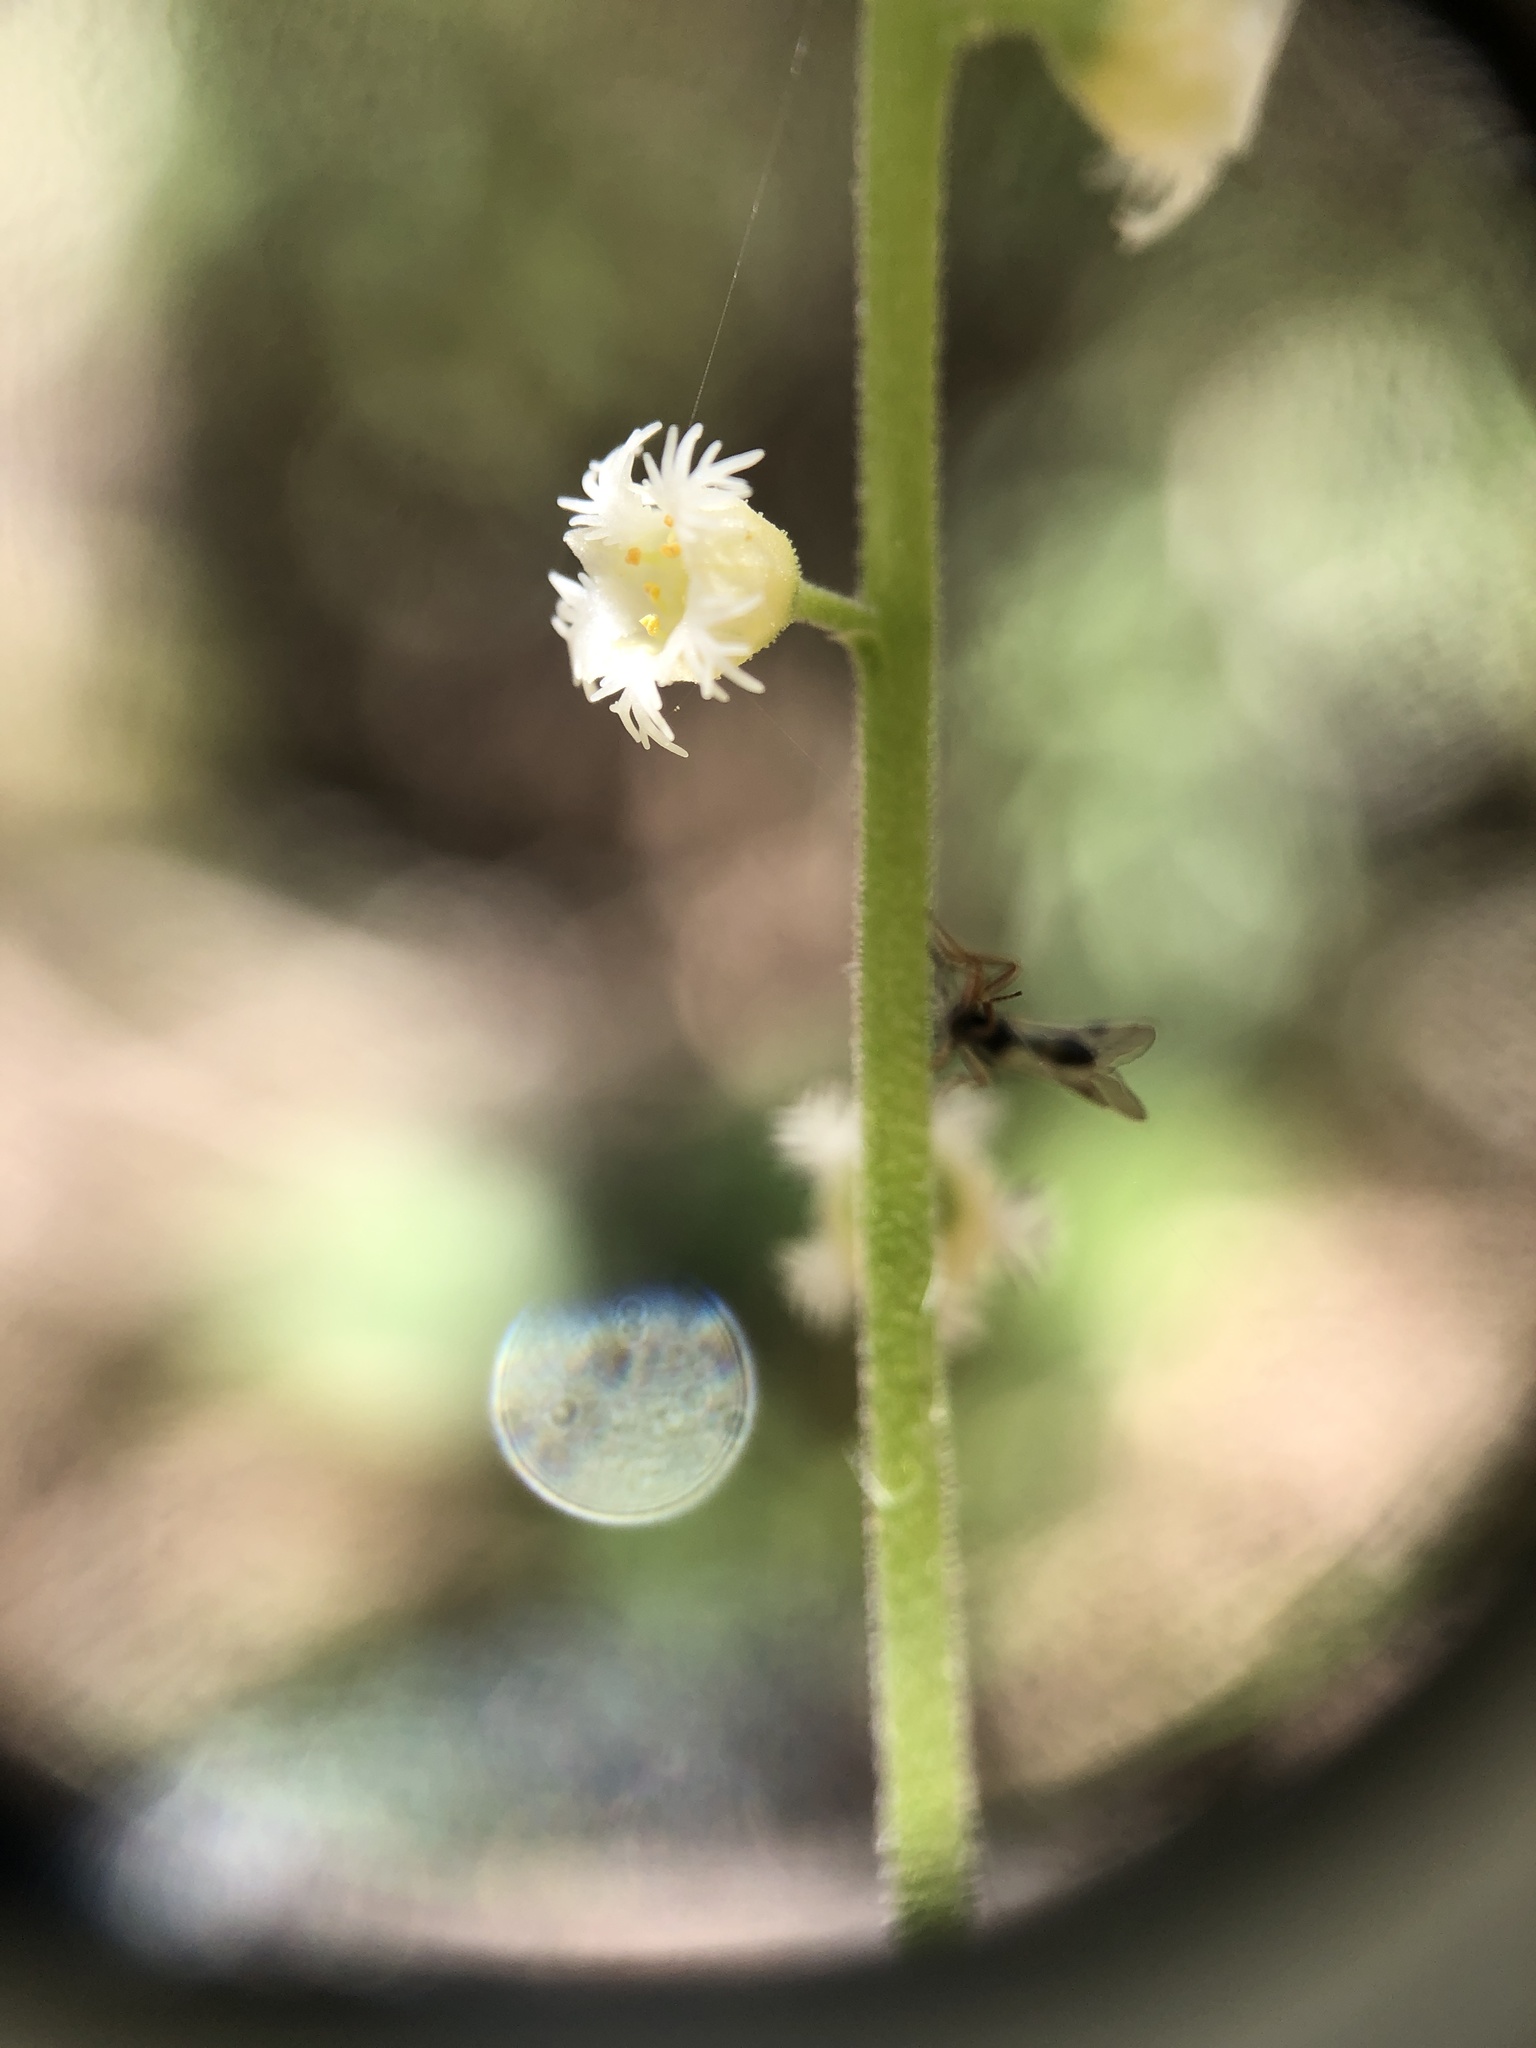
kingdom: Plantae
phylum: Tracheophyta
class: Magnoliopsida
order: Saxifragales
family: Saxifragaceae
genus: Mitella
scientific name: Mitella diphylla
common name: Coolwort
